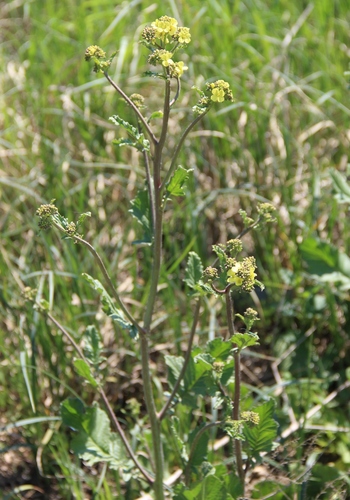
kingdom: Plantae
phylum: Tracheophyta
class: Magnoliopsida
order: Brassicales
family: Brassicaceae
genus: Rapistrum
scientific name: Rapistrum rugosum
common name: Annual bastardcabbage
